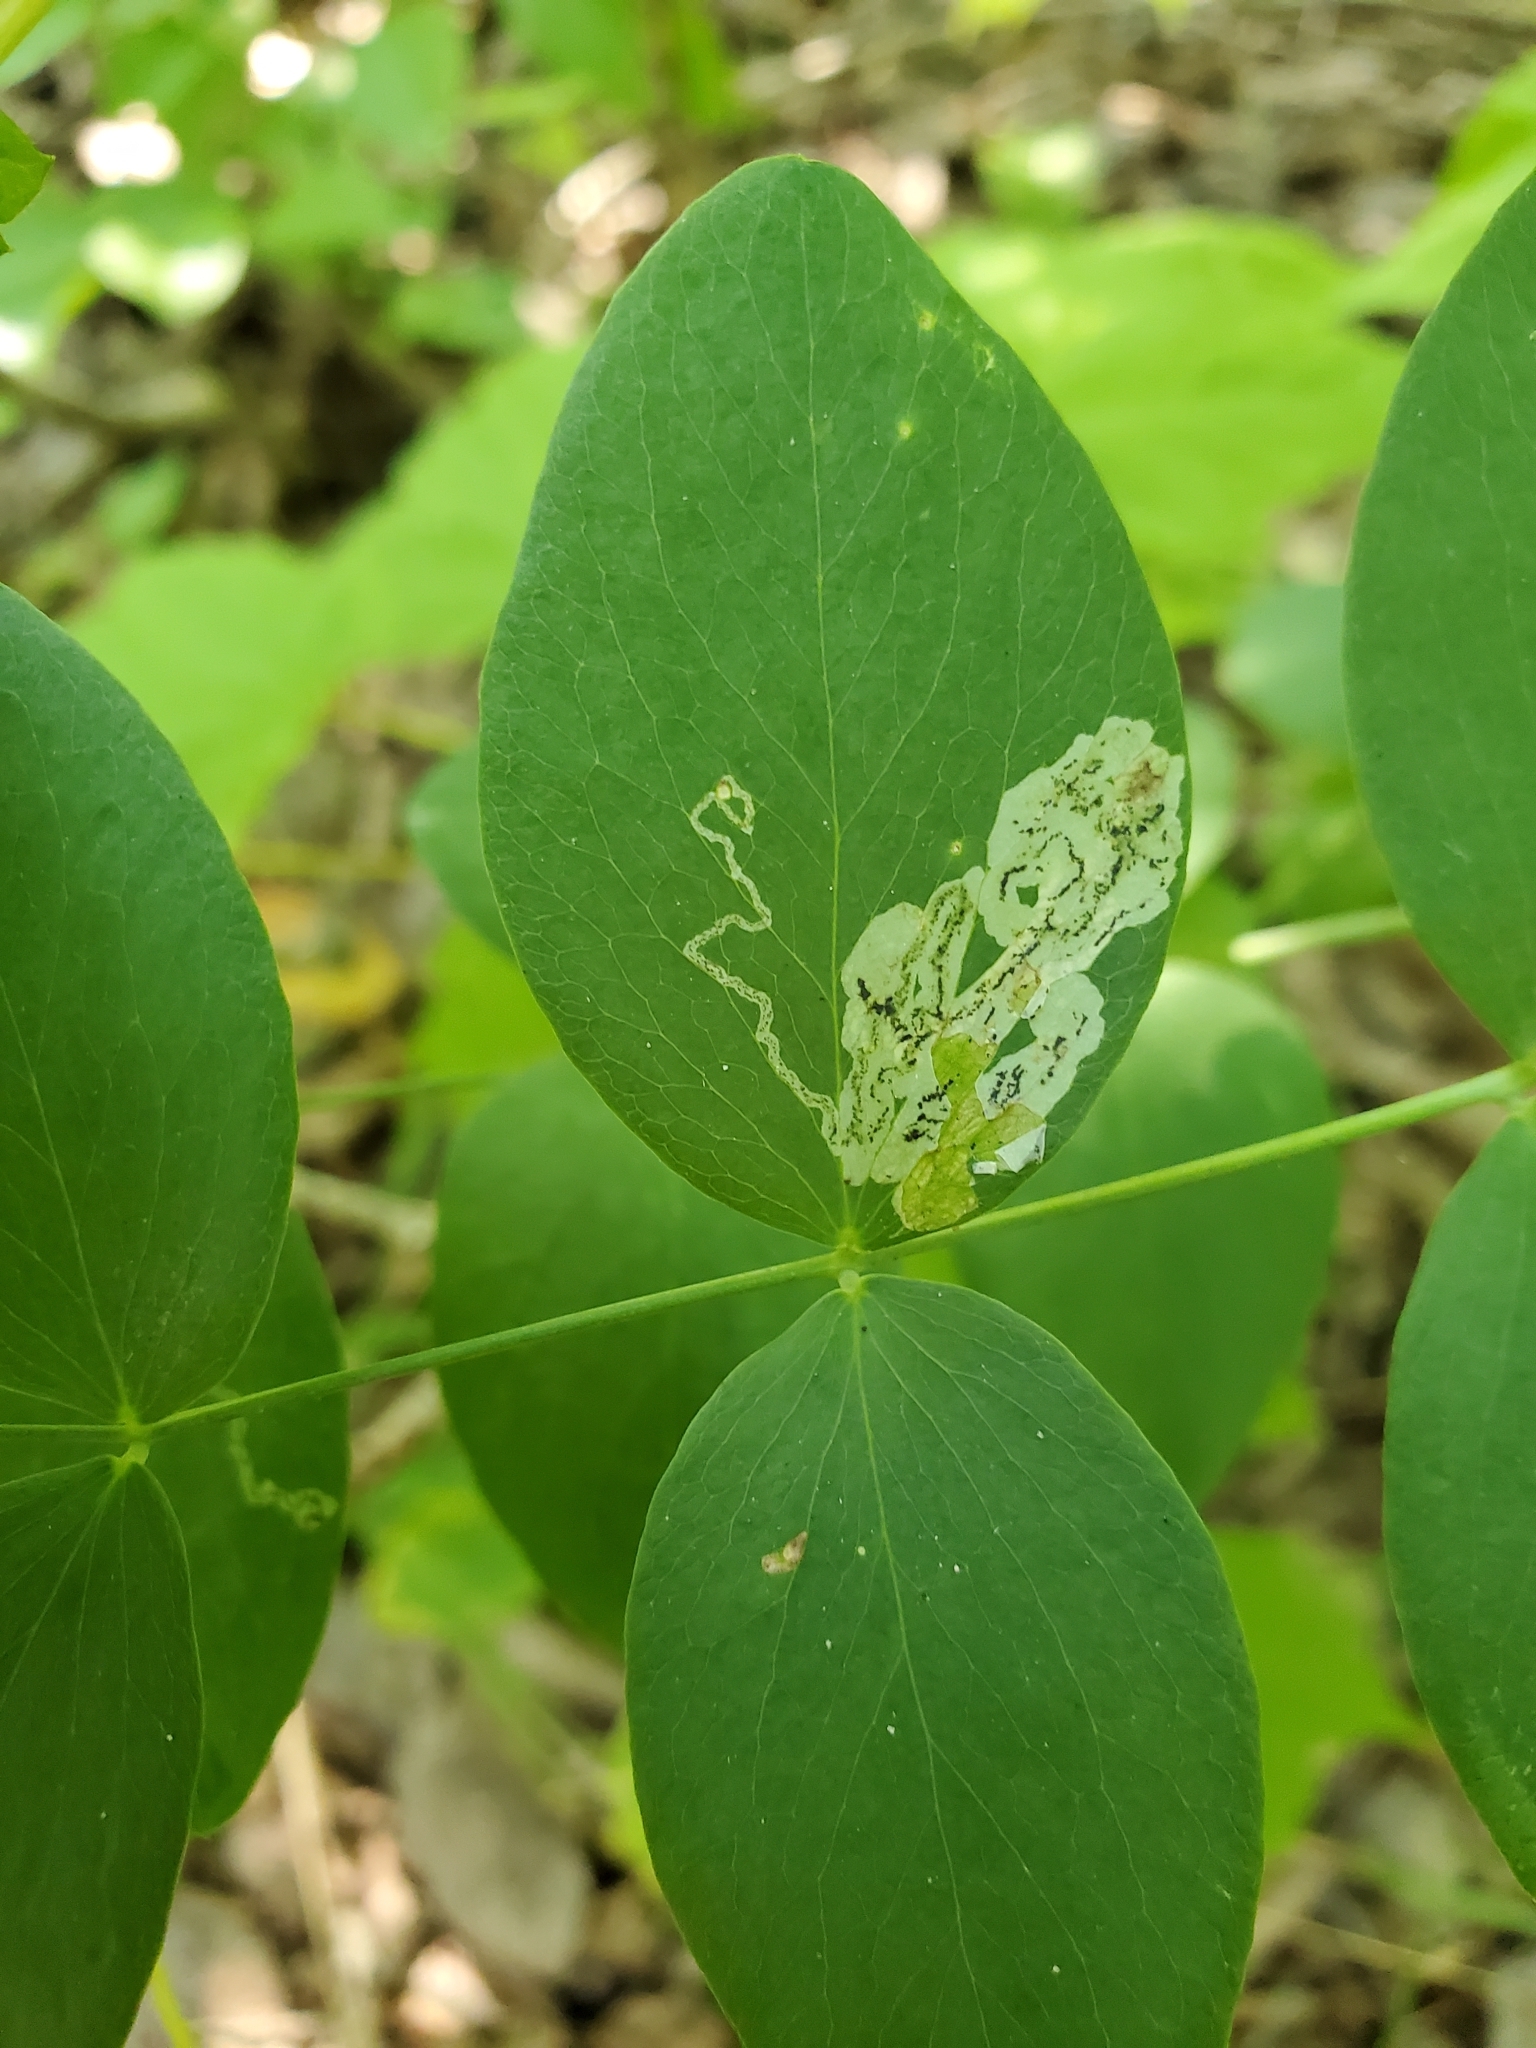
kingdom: Animalia
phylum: Arthropoda
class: Insecta
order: Diptera
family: Agromyzidae
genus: Liriomyza
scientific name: Liriomyza fricki
